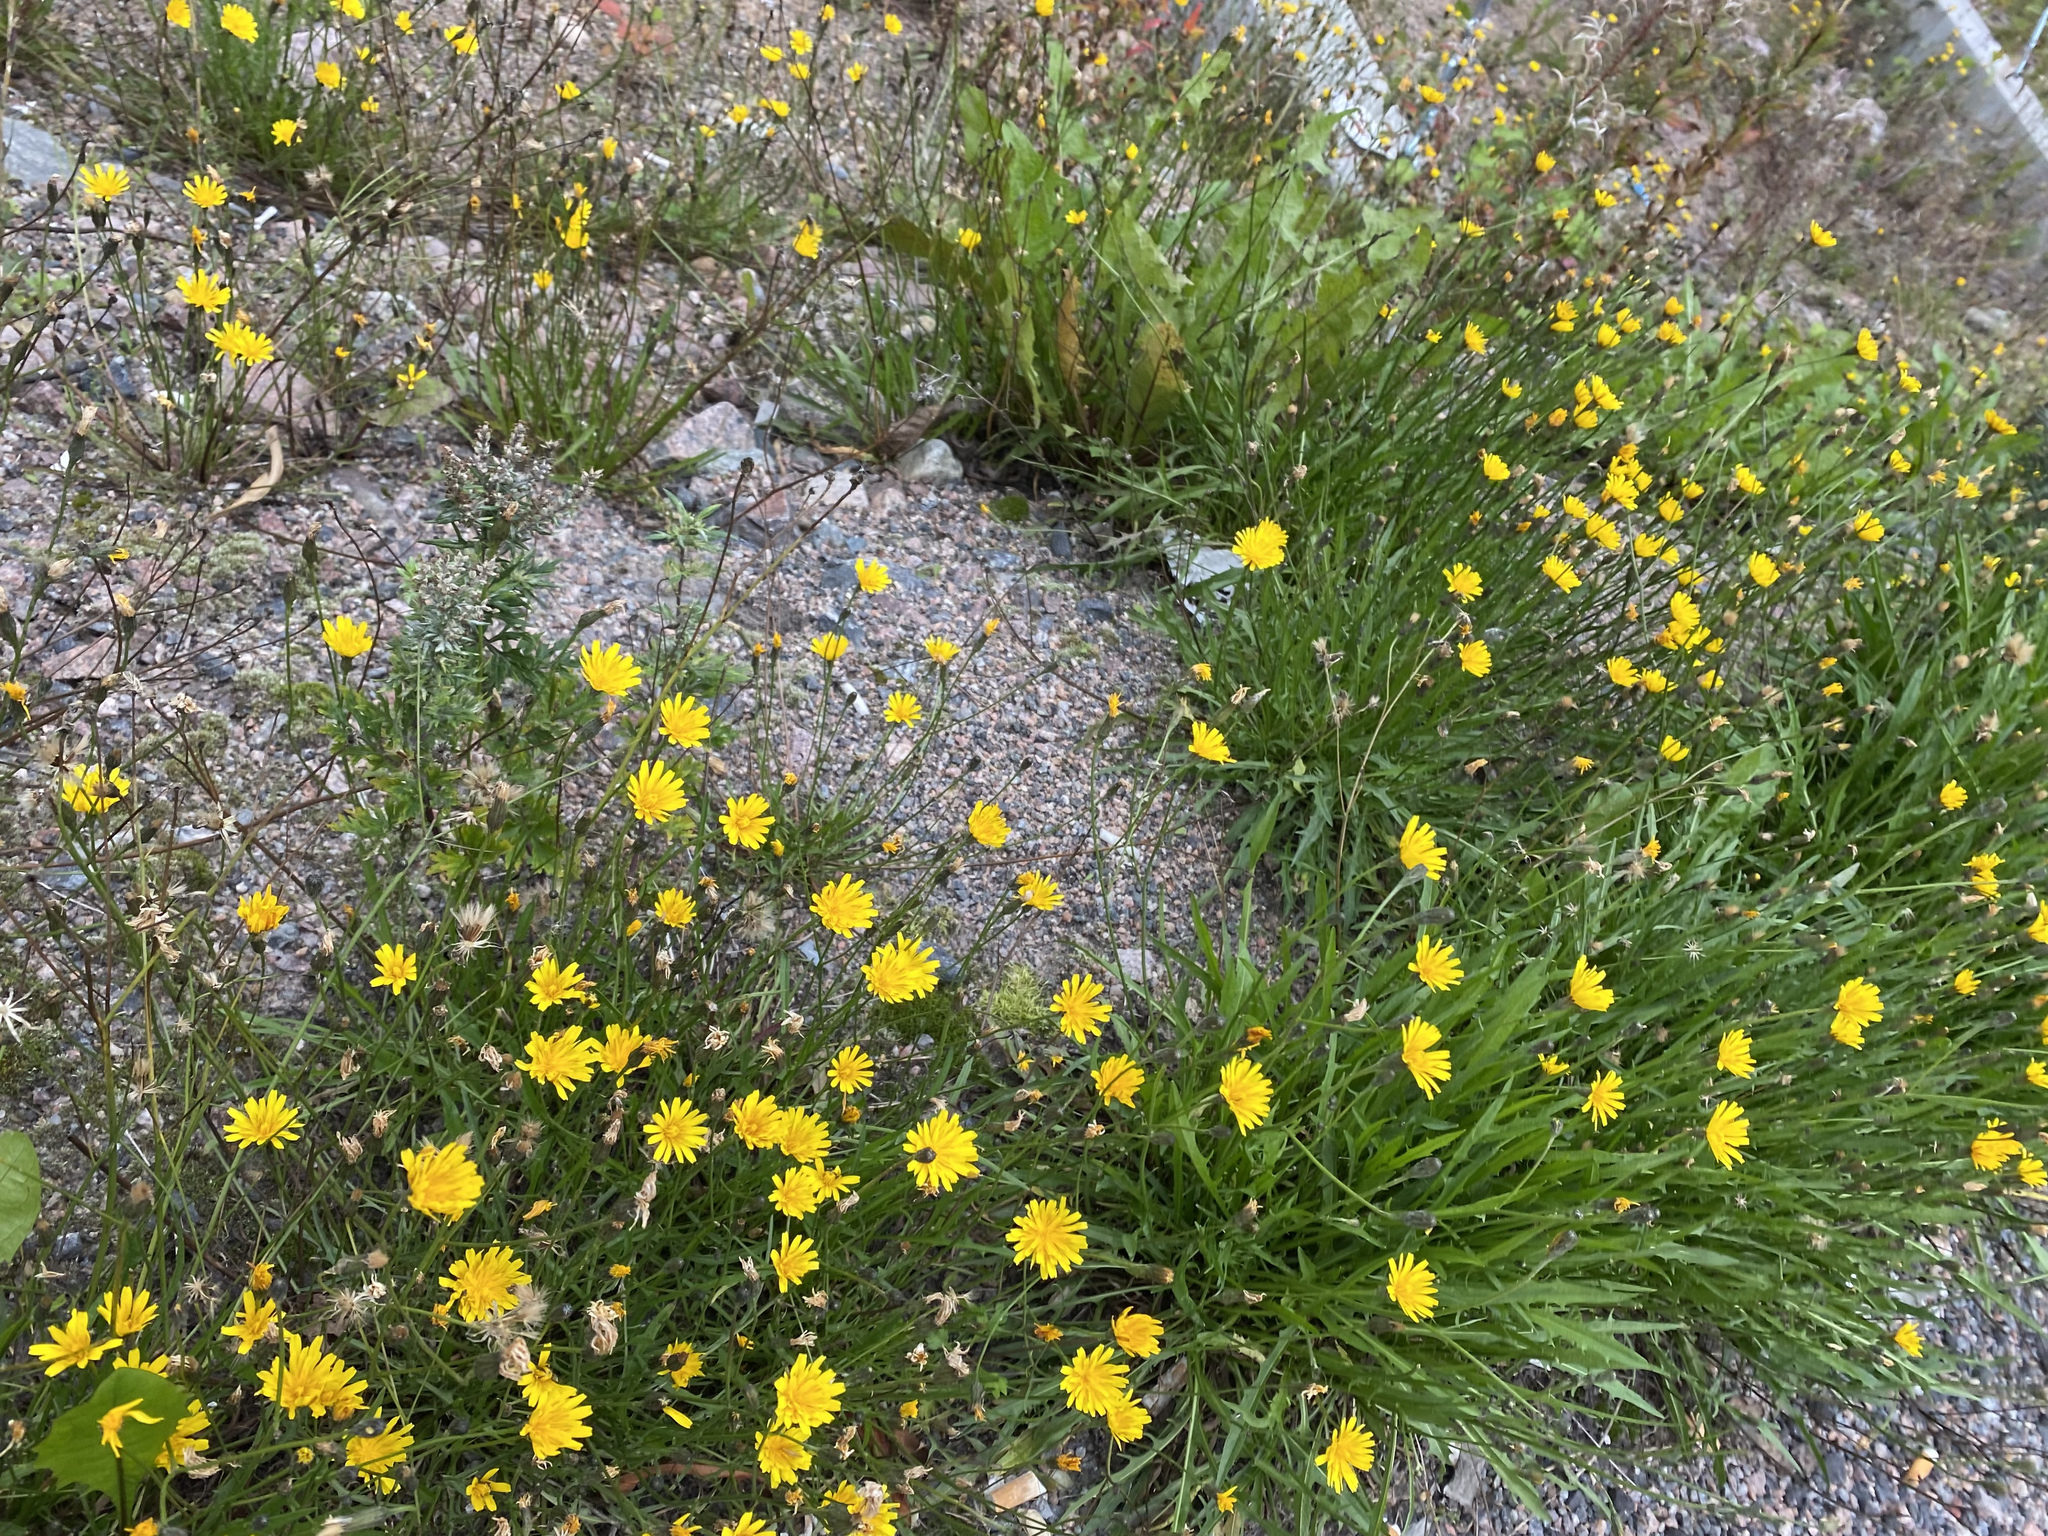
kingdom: Plantae
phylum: Tracheophyta
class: Magnoliopsida
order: Asterales
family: Asteraceae
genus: Scorzoneroides
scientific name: Scorzoneroides autumnalis
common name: Autumn hawkbit
